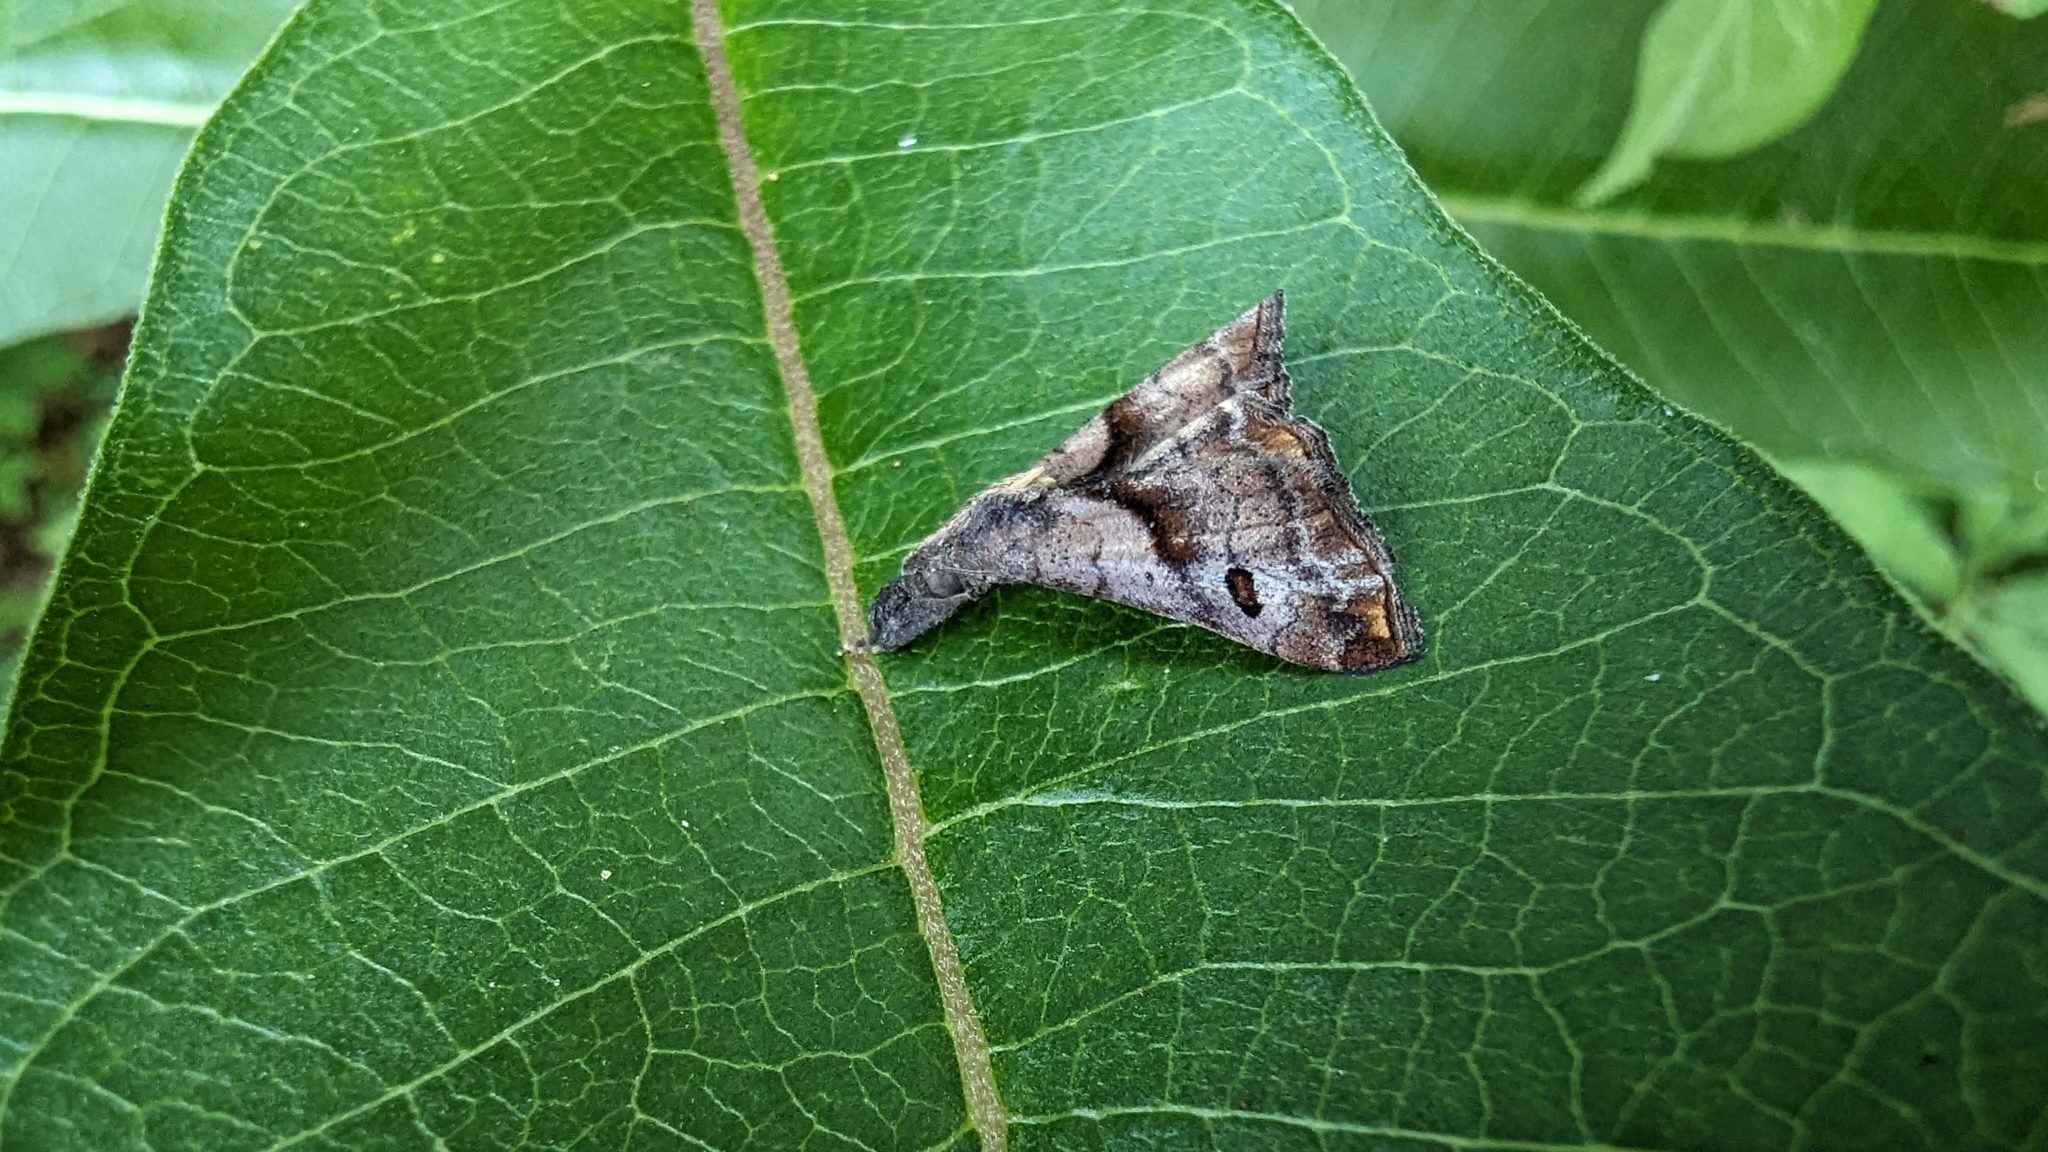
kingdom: Animalia
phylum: Arthropoda
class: Insecta
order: Lepidoptera
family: Erebidae
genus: Palthis
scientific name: Palthis angulalis
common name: Dark-spotted palthis moth
